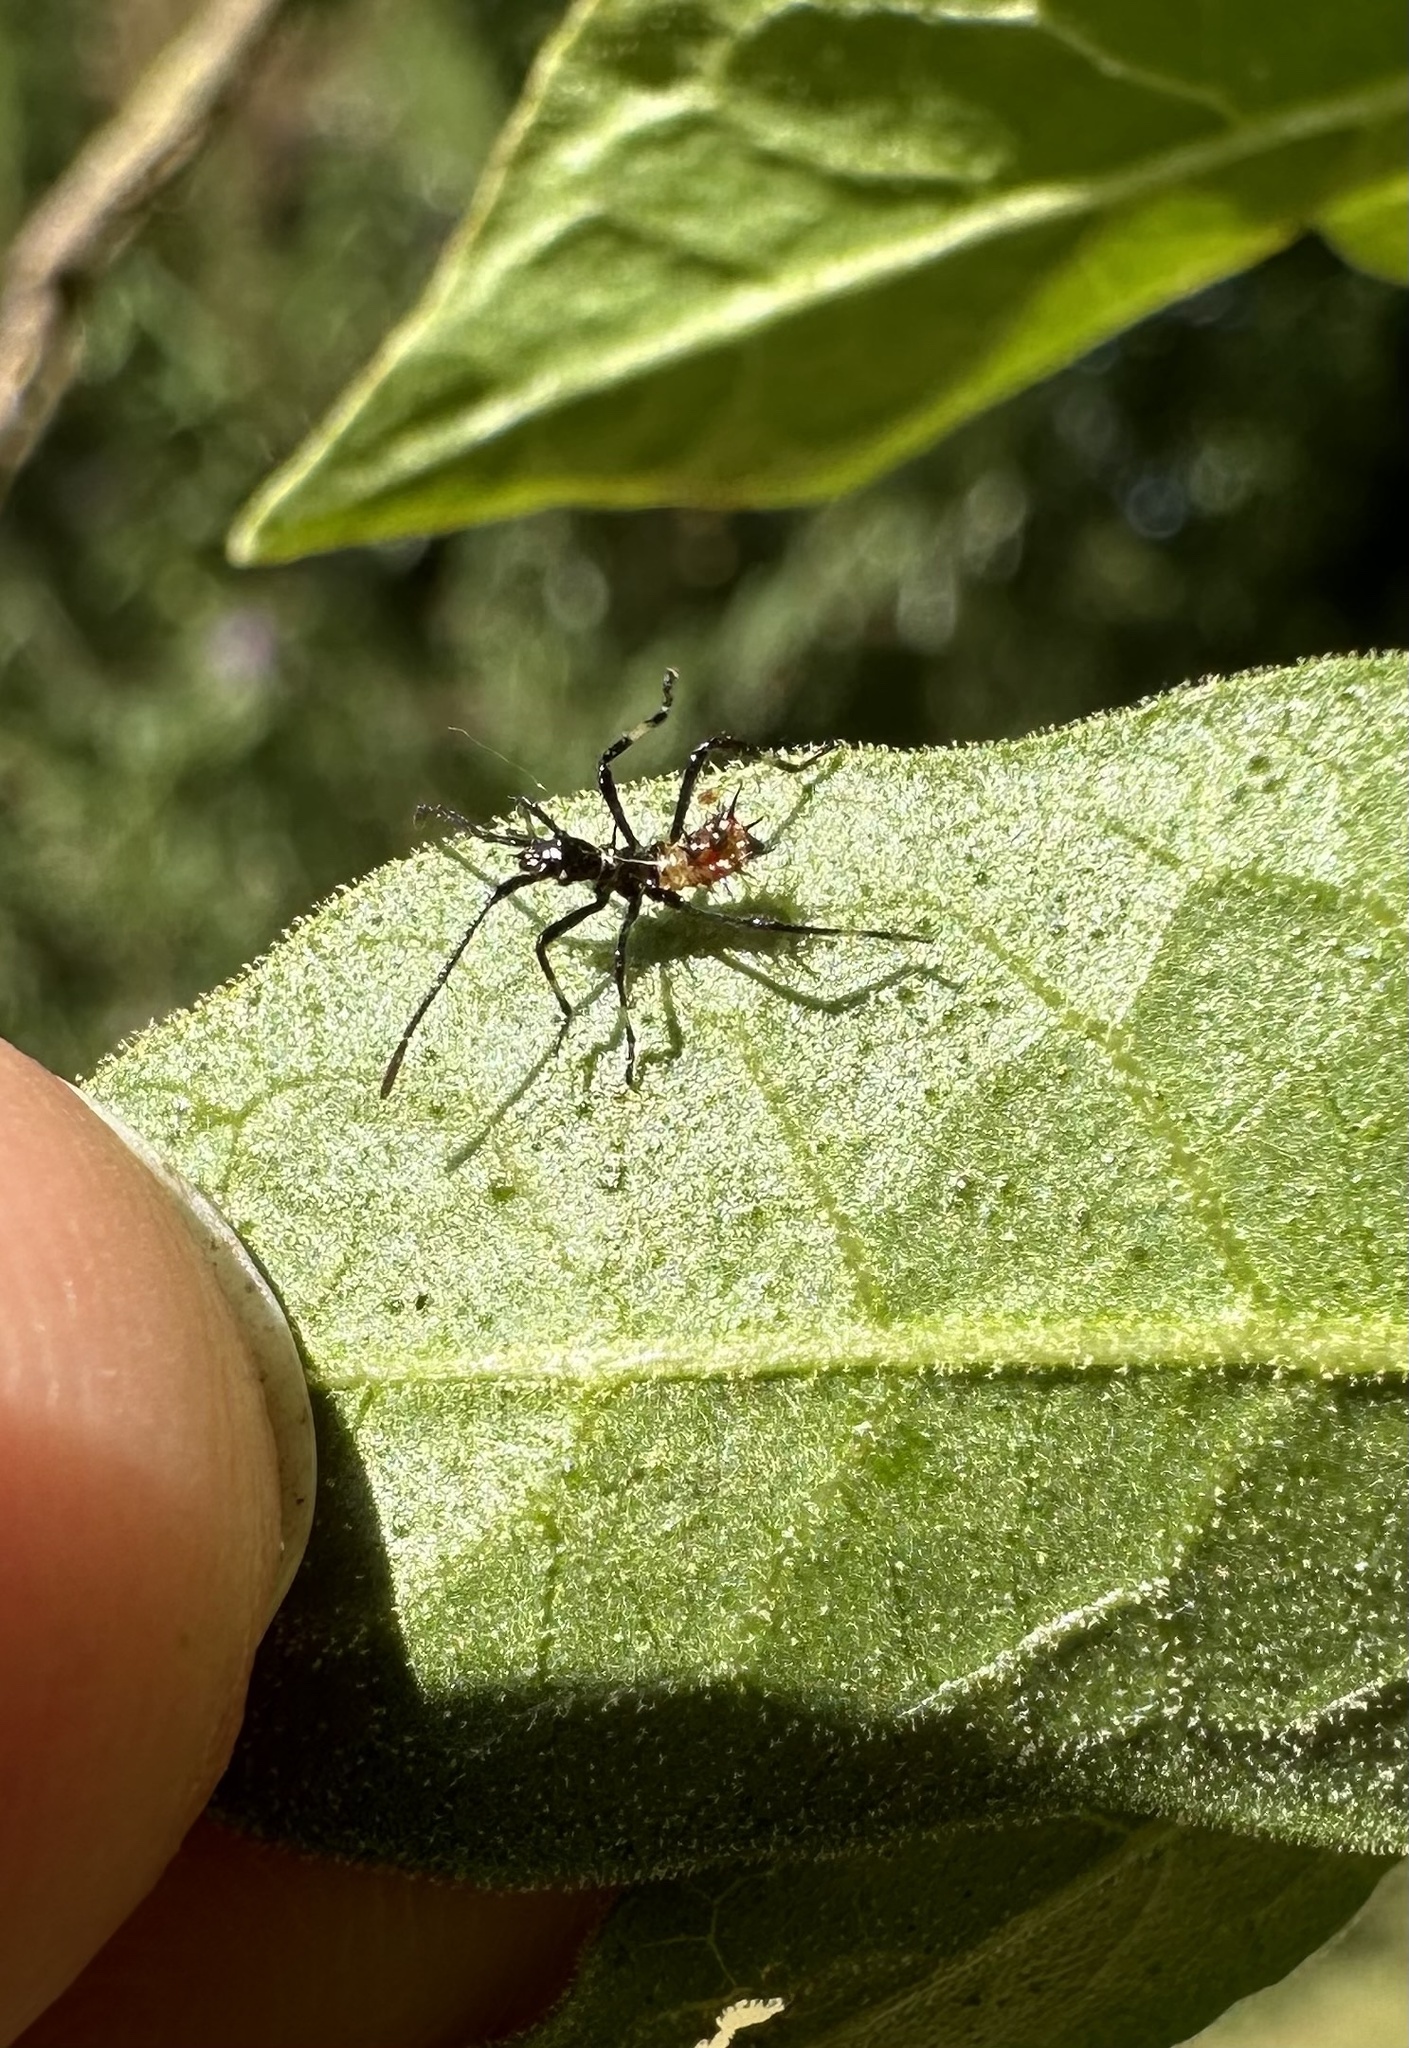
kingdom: Animalia
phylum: Arthropoda
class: Insecta
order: Hemiptera
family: Coreidae
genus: Leptoglossus
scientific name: Leptoglossus chilensis
